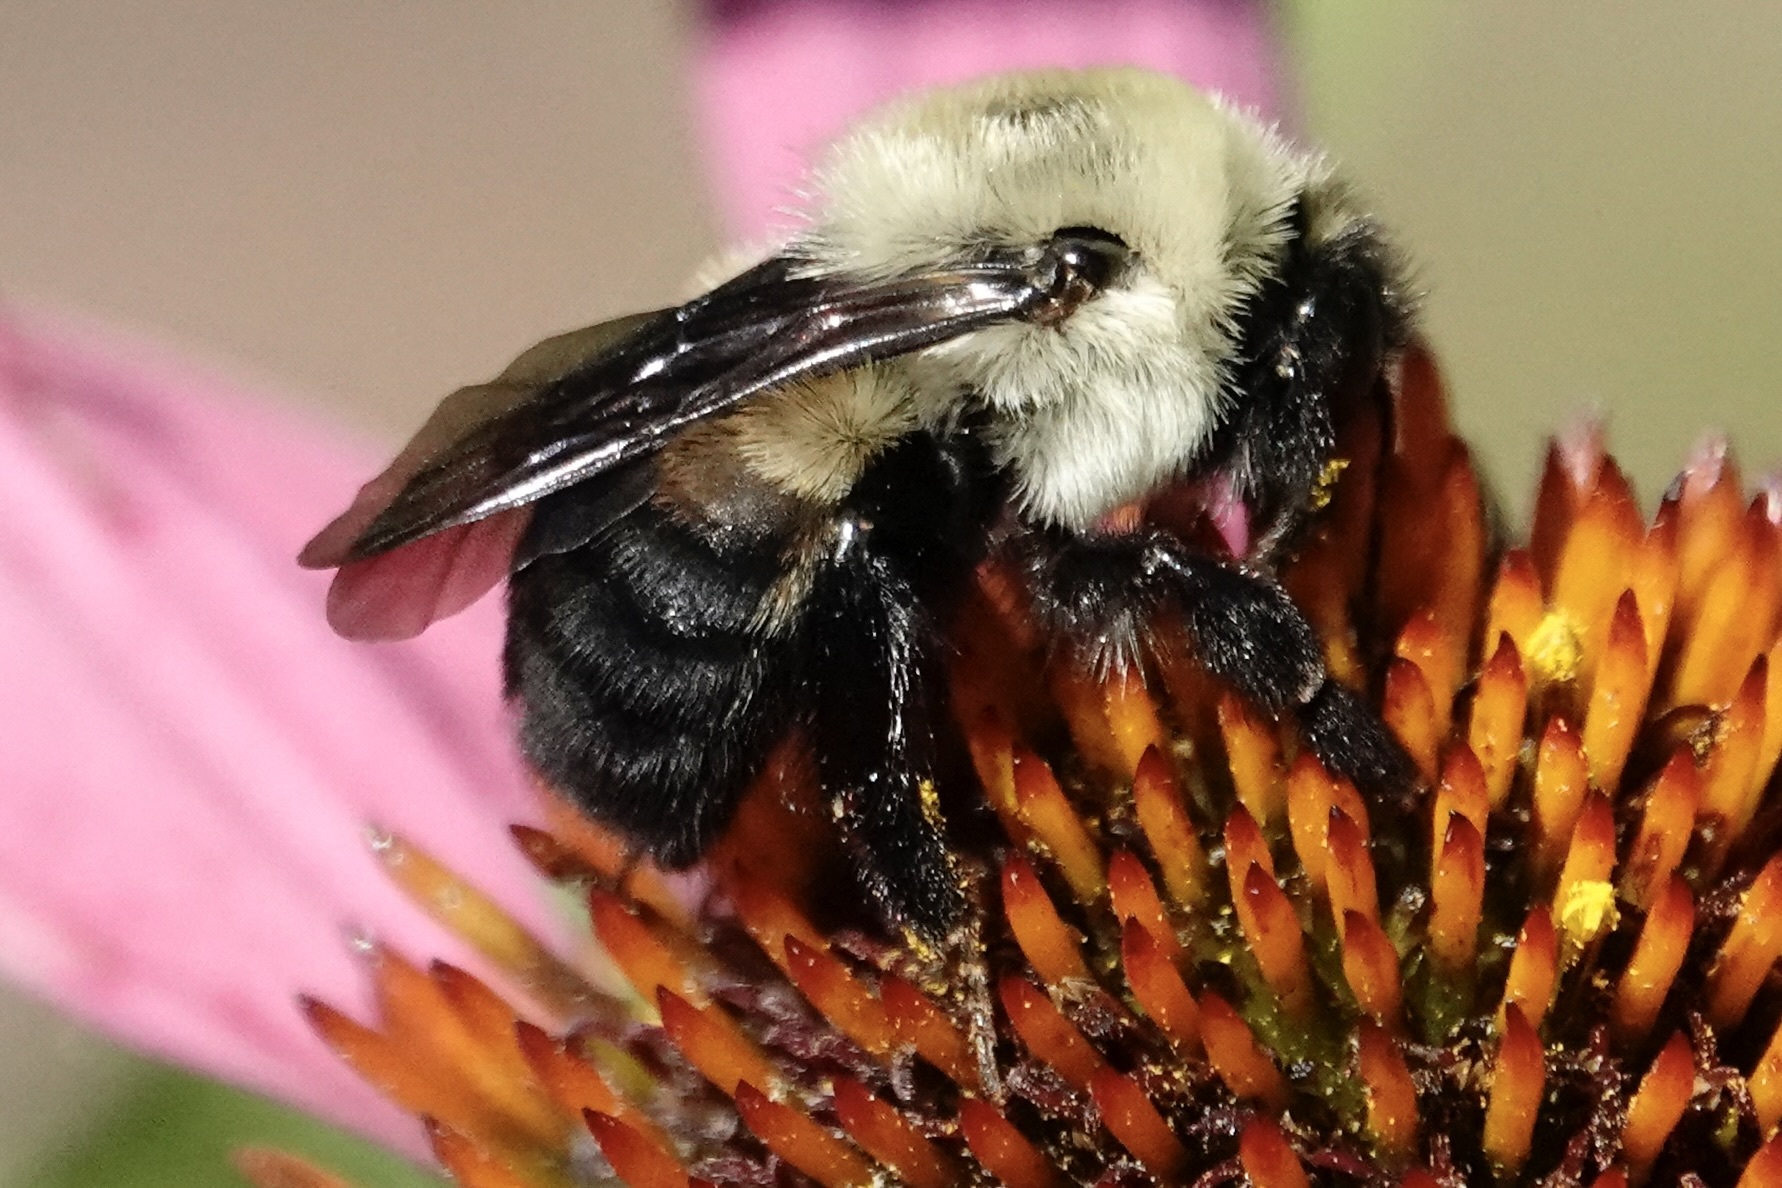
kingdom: Animalia
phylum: Arthropoda
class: Insecta
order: Hymenoptera
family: Apidae
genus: Bombus
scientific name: Bombus griseocollis
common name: Brown-belted bumble bee
